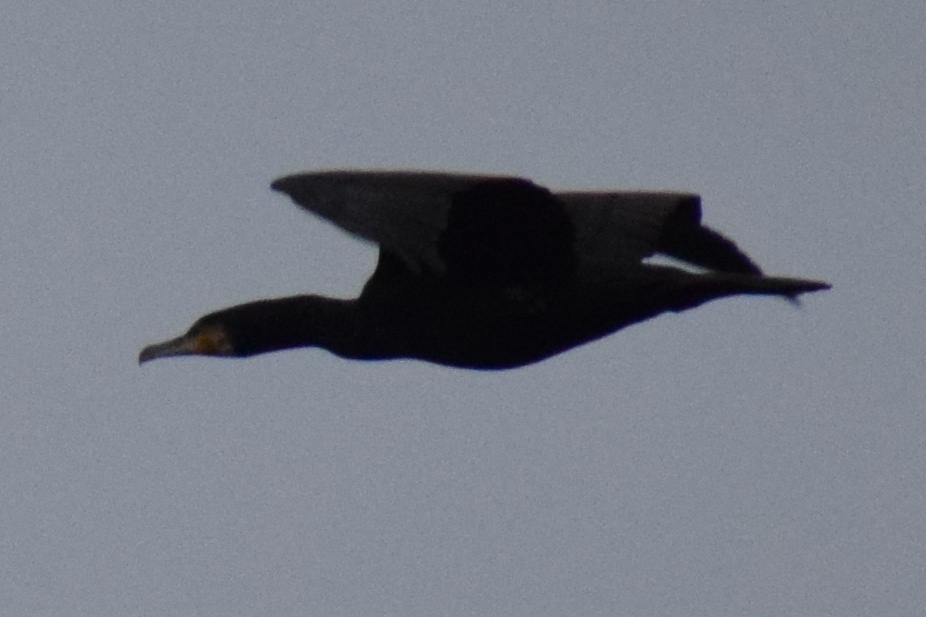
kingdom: Animalia
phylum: Chordata
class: Aves
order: Suliformes
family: Phalacrocoracidae
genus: Phalacrocorax
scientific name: Phalacrocorax carbo
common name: Great cormorant
